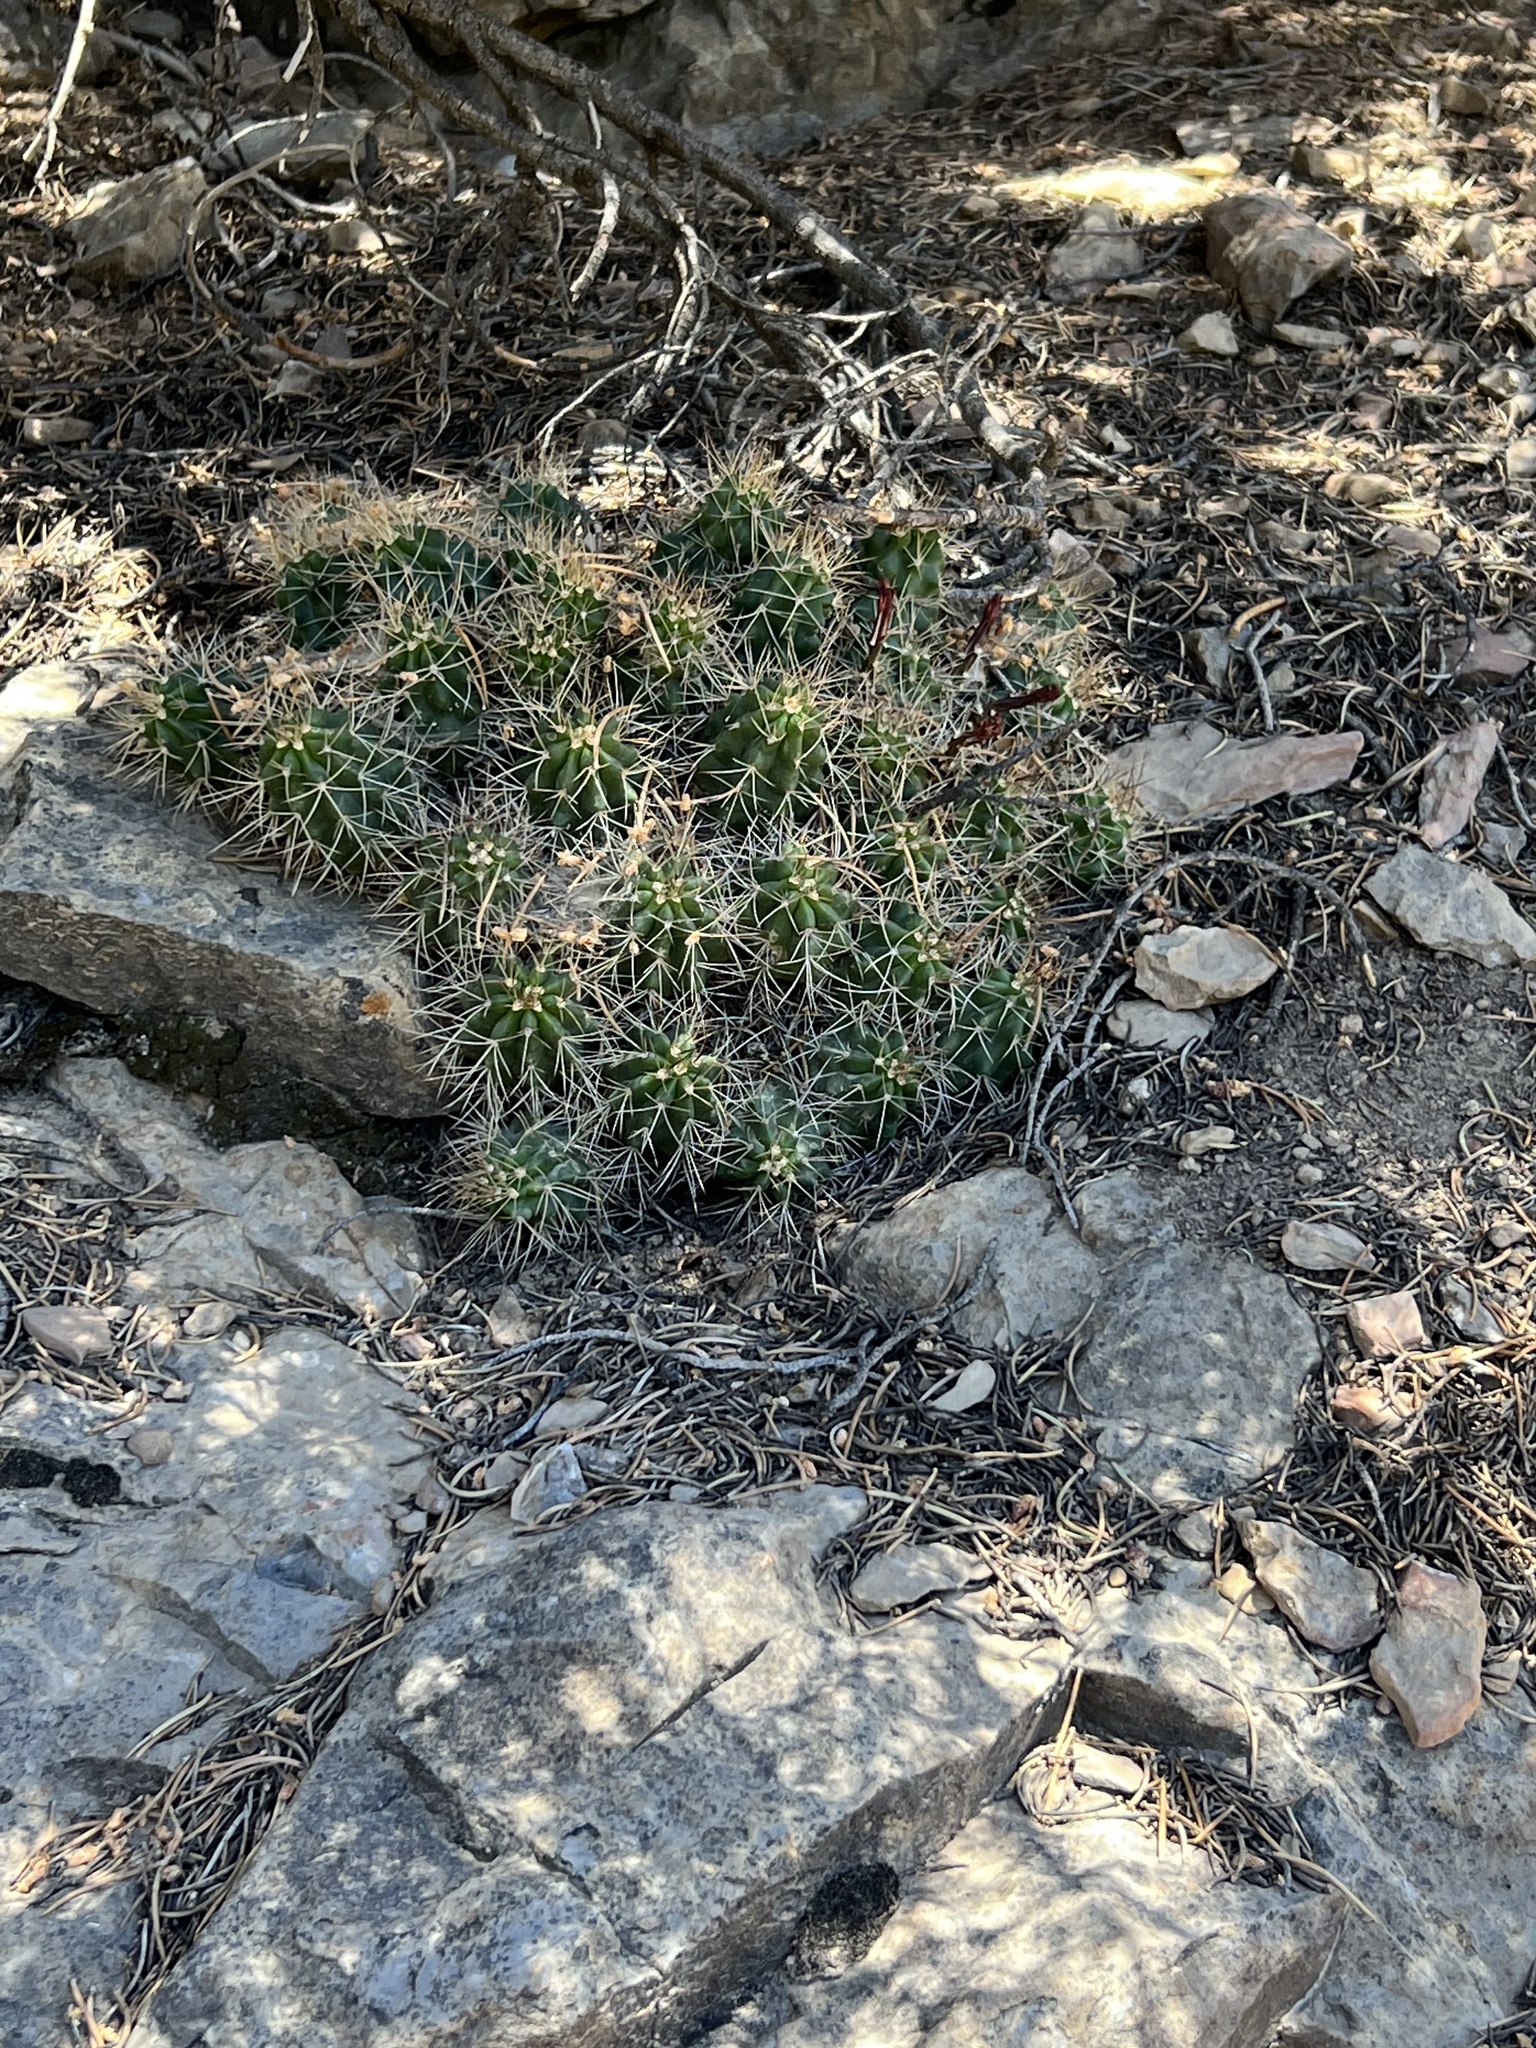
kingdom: Plantae
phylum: Tracheophyta
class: Magnoliopsida
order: Caryophyllales
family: Cactaceae
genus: Echinocereus
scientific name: Echinocereus triglochidiatus
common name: Claretcup hedgehog
